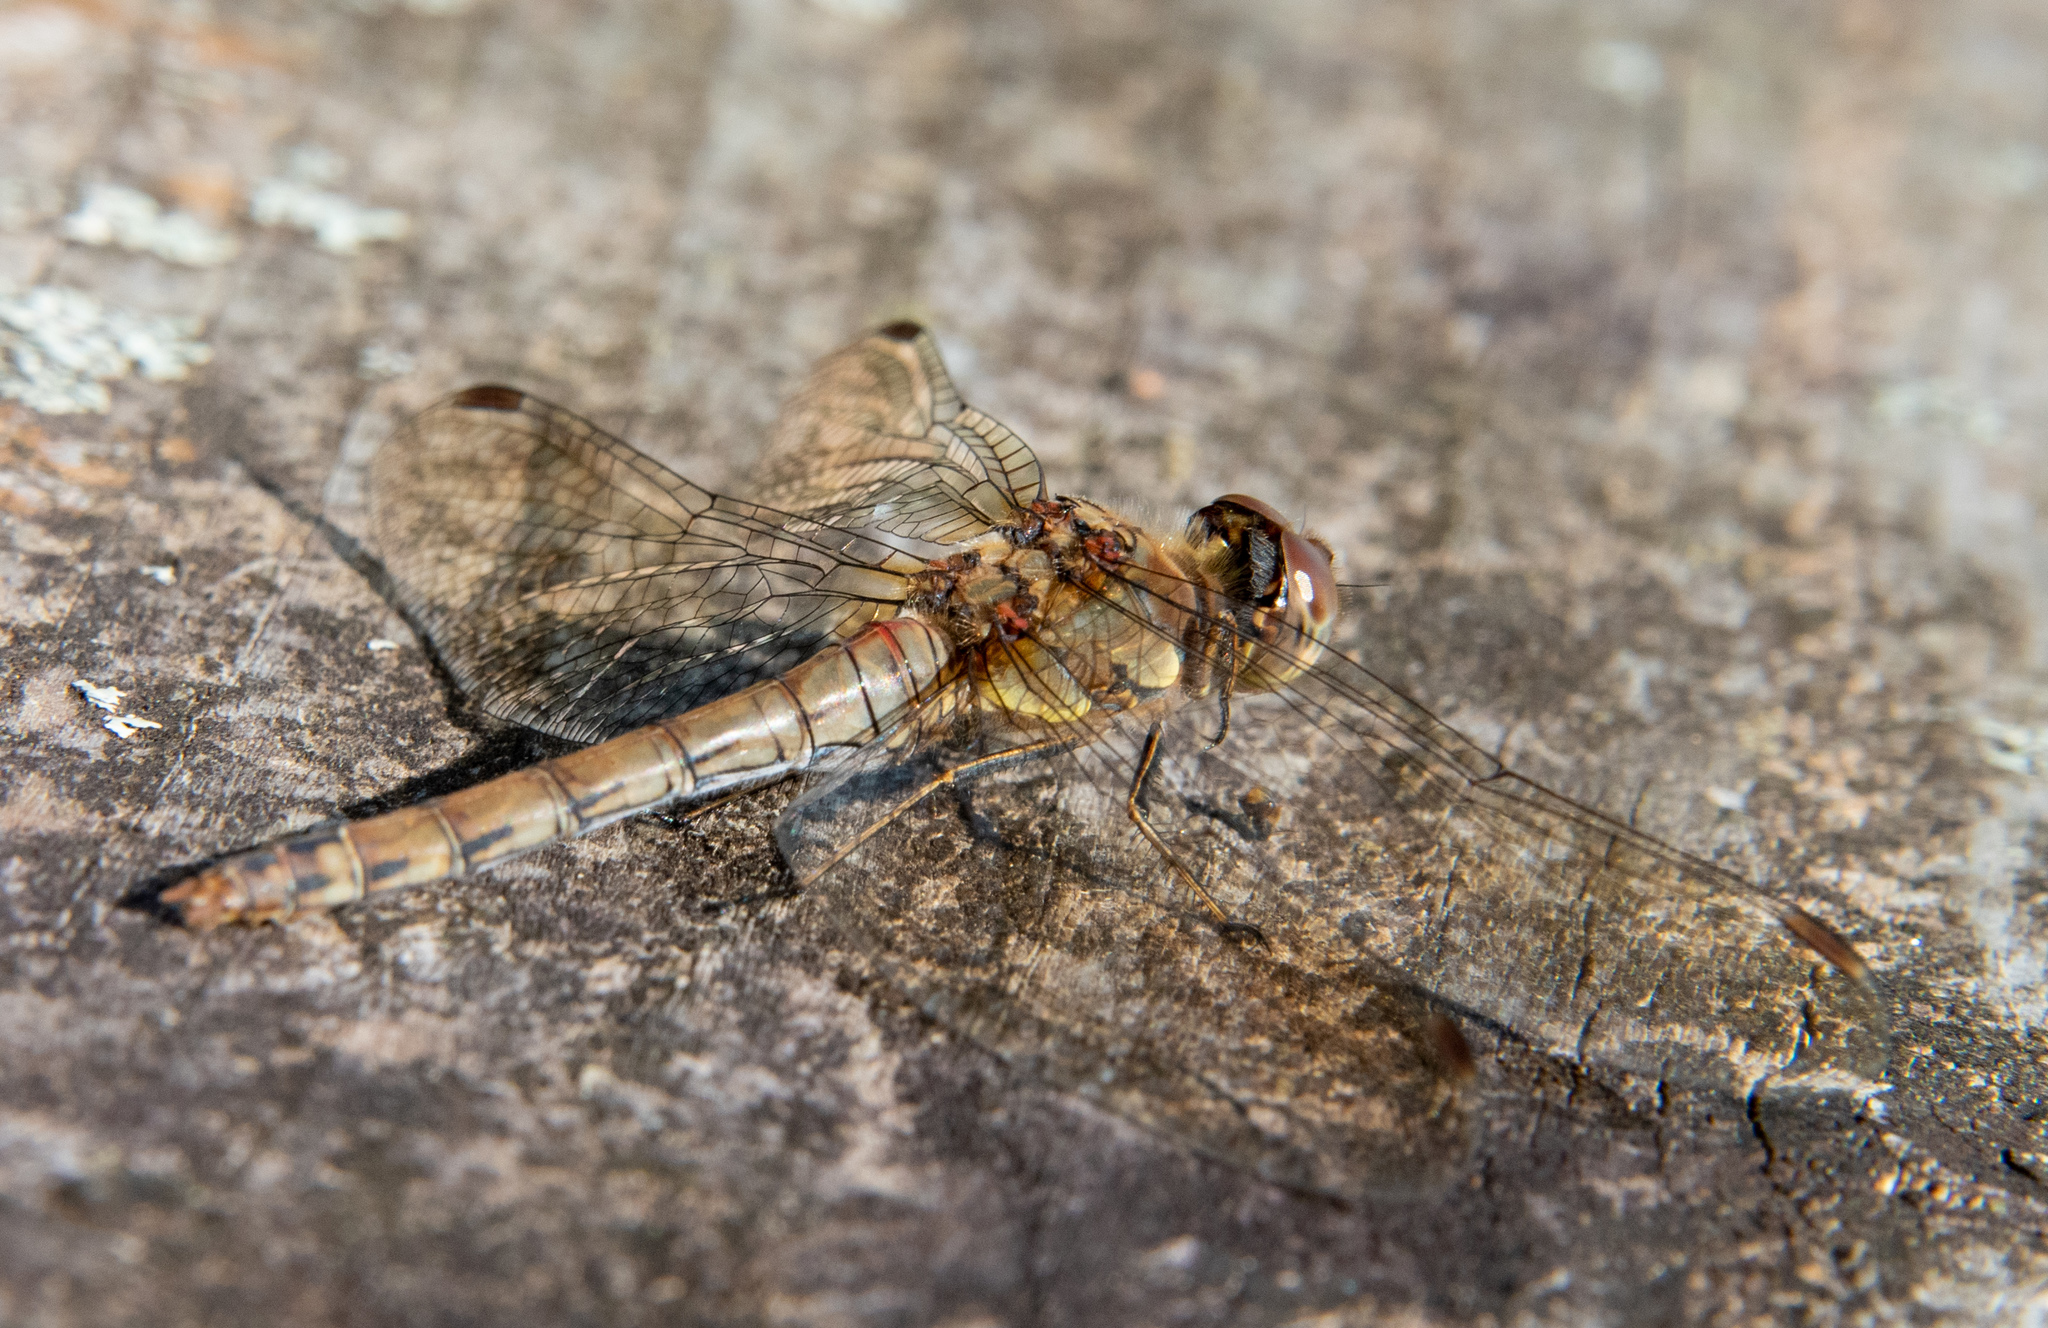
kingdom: Animalia
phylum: Arthropoda
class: Insecta
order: Odonata
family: Libellulidae
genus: Sympetrum
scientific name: Sympetrum striolatum
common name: Common darter
